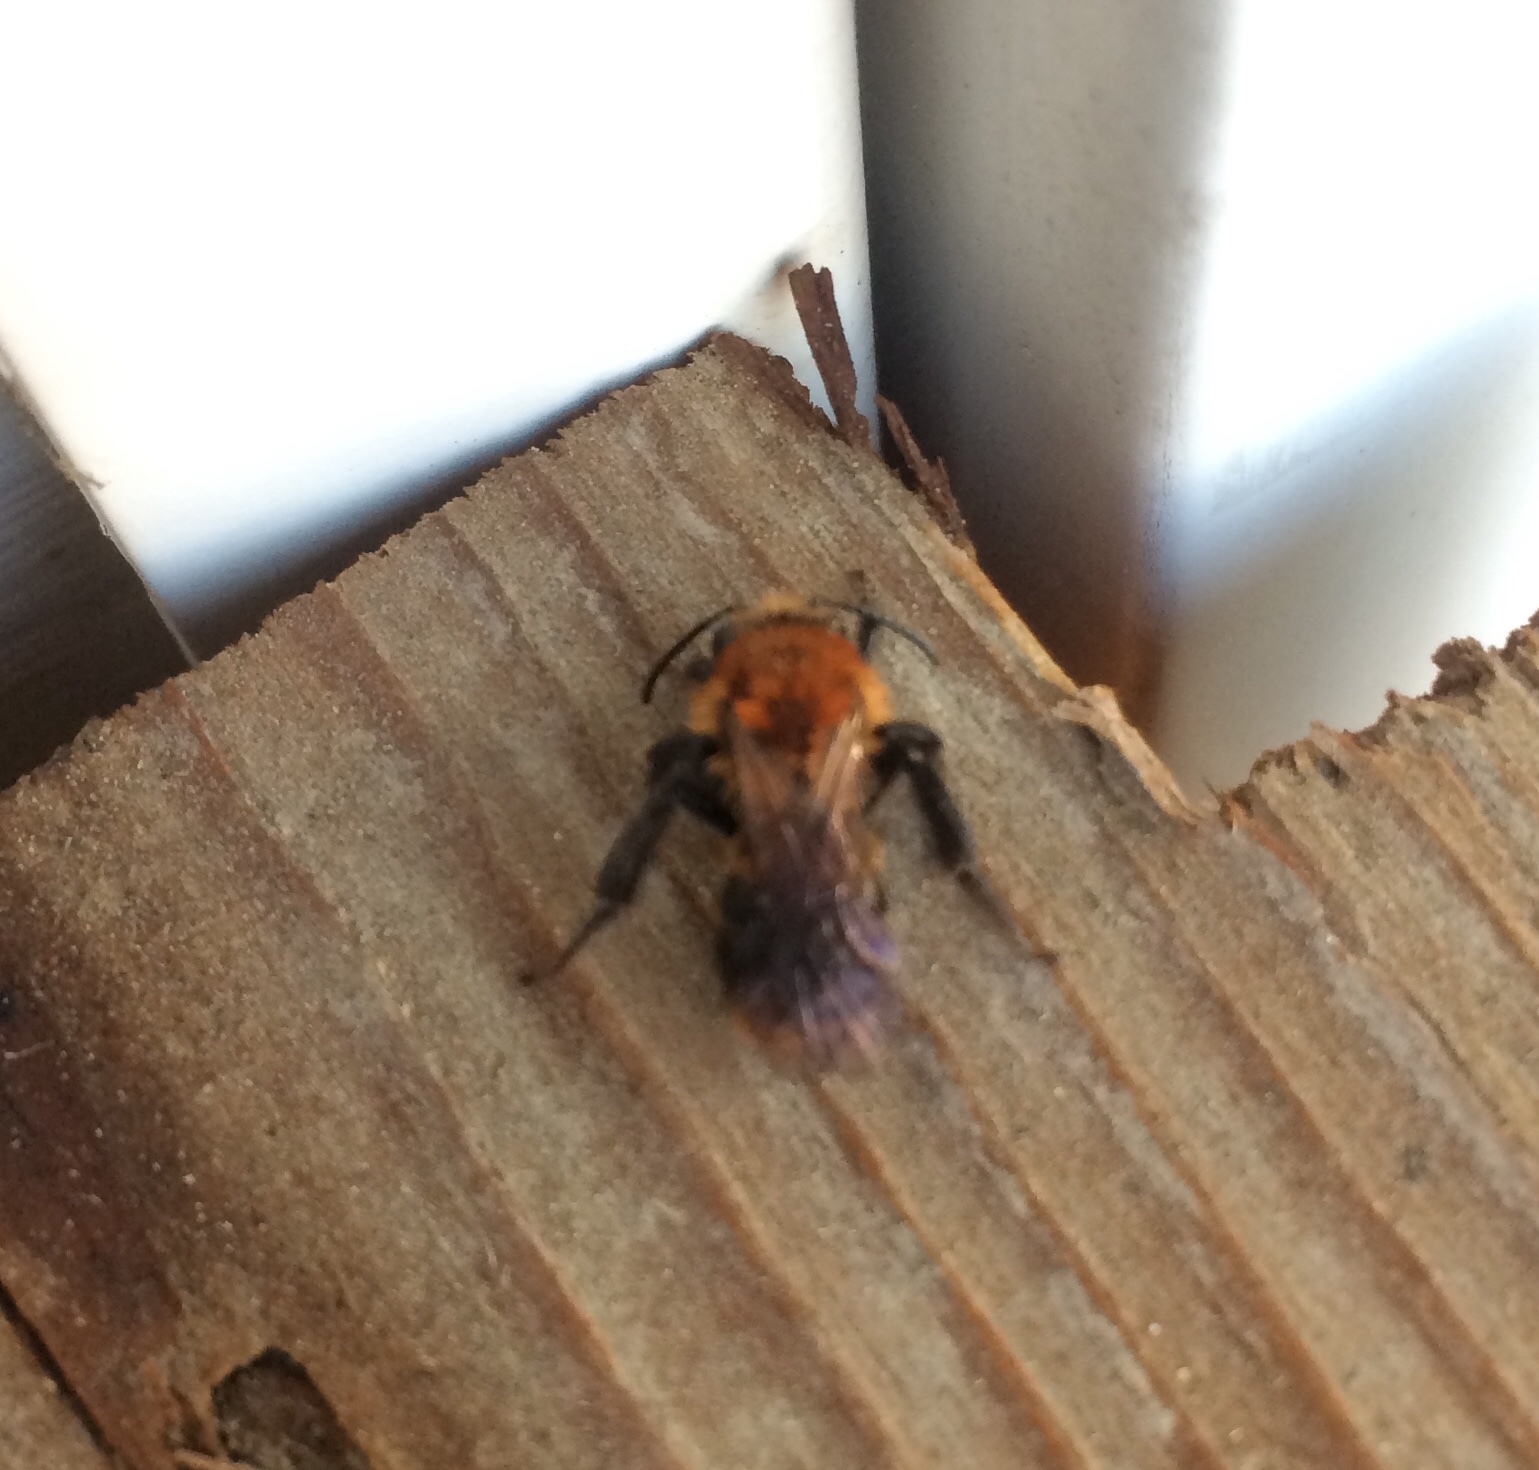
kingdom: Animalia
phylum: Arthropoda
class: Insecta
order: Hymenoptera
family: Andrenidae
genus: Andrena
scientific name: Andrena
